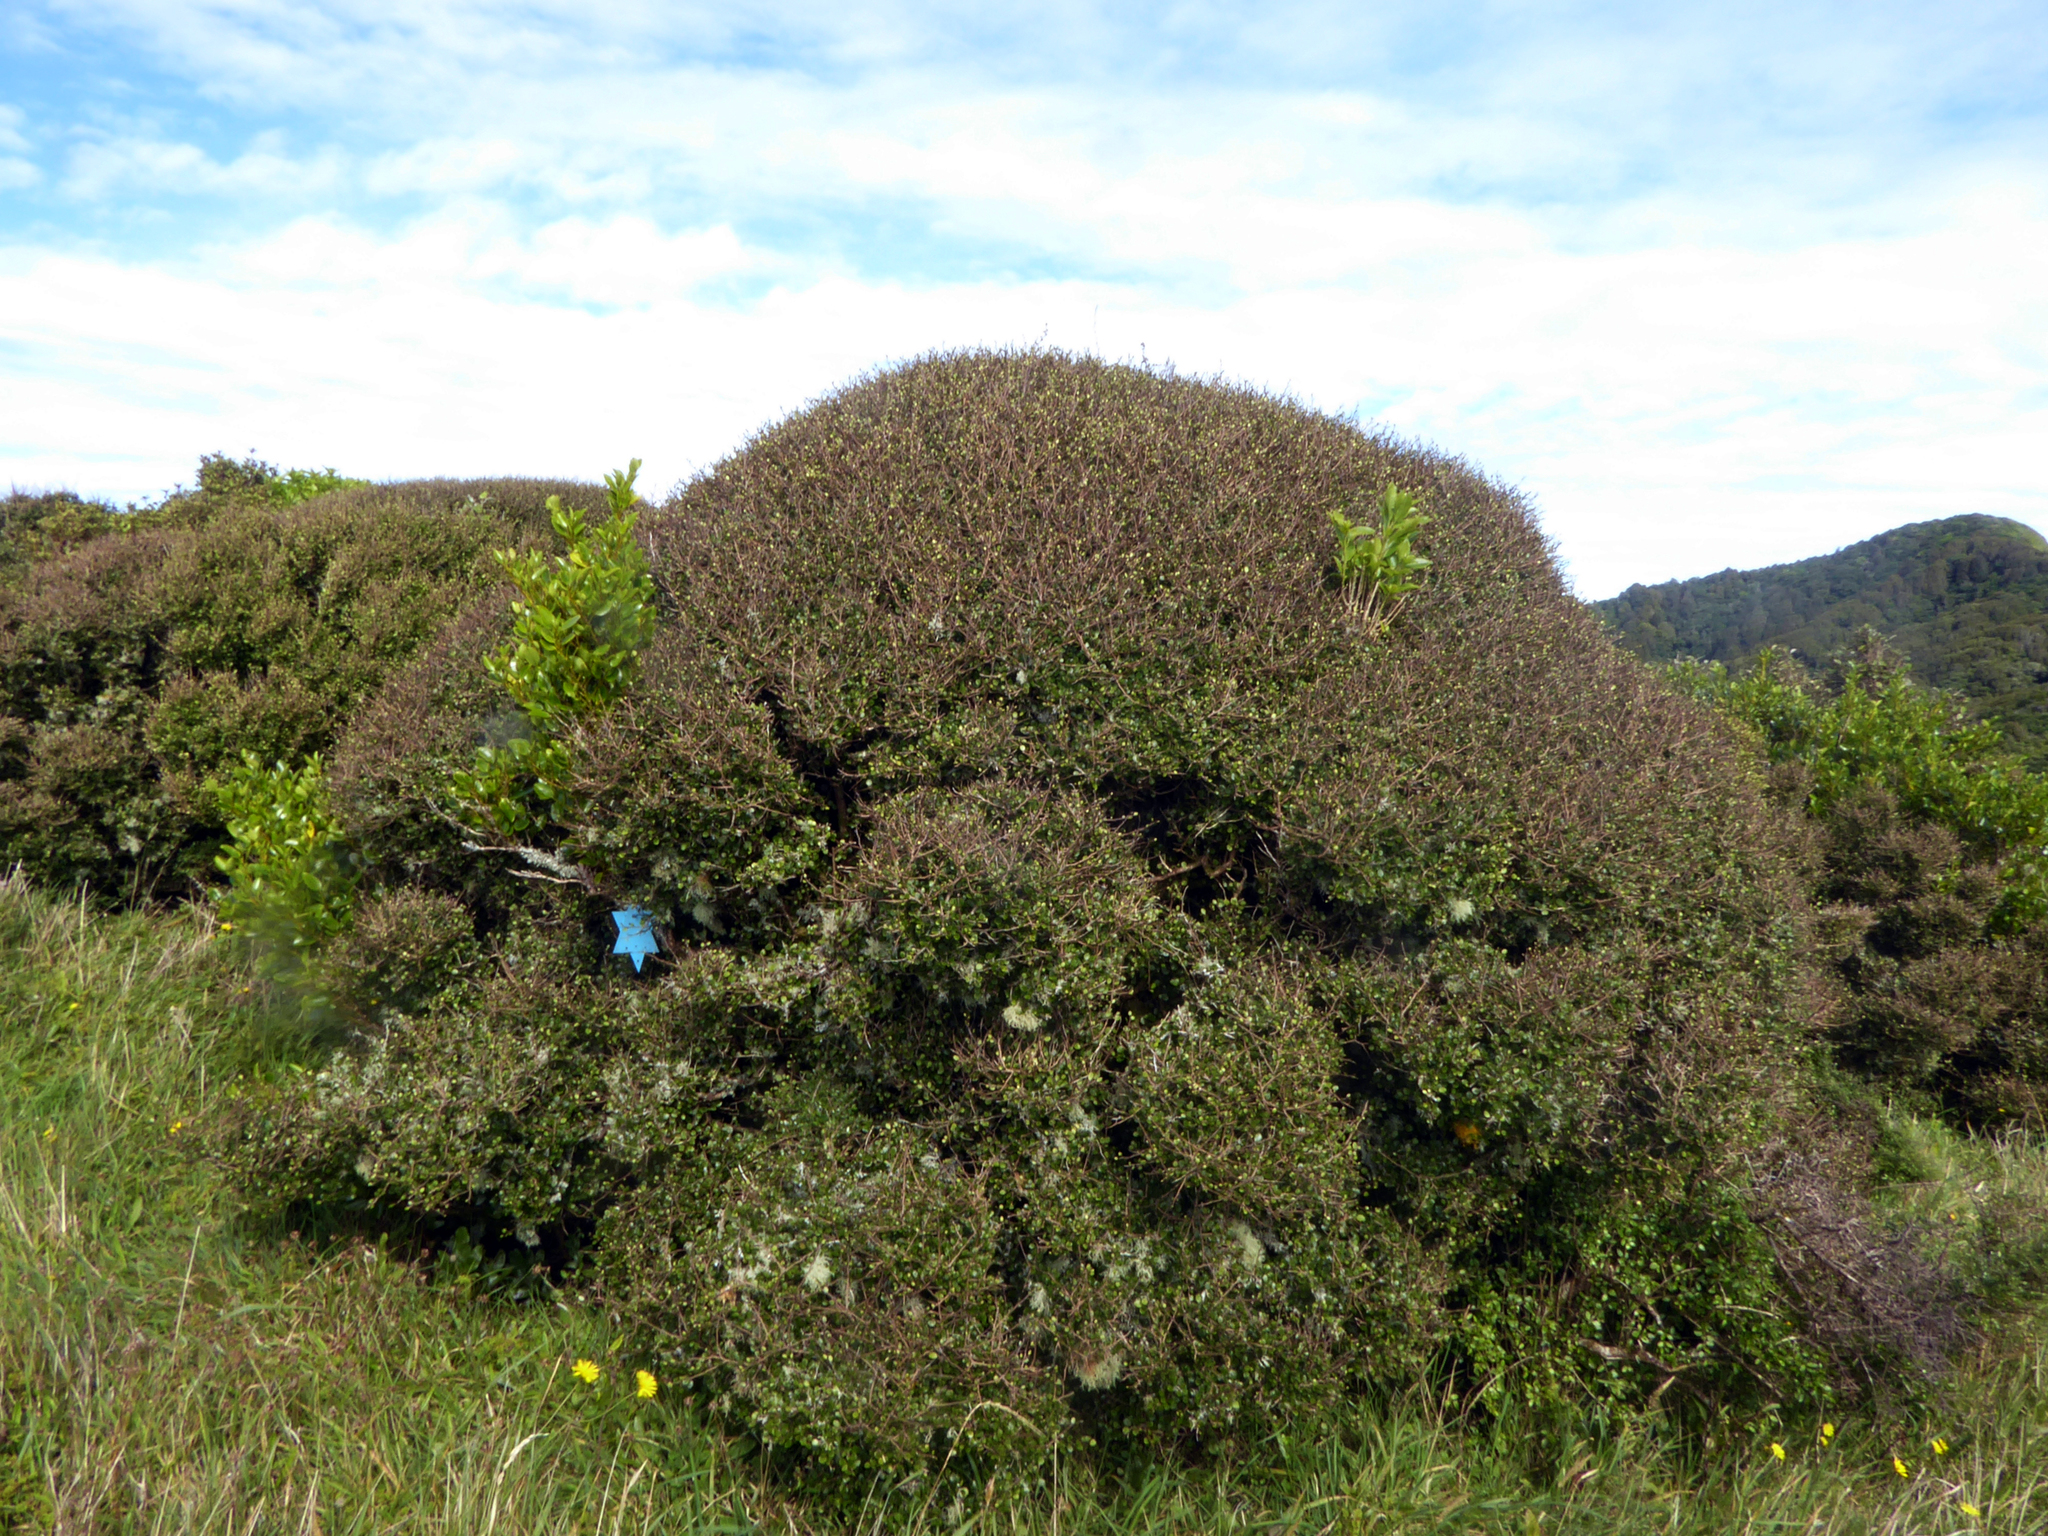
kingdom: Plantae
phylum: Tracheophyta
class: Magnoliopsida
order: Apiales
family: Araliaceae
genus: Raukaua
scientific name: Raukaua anomalus
